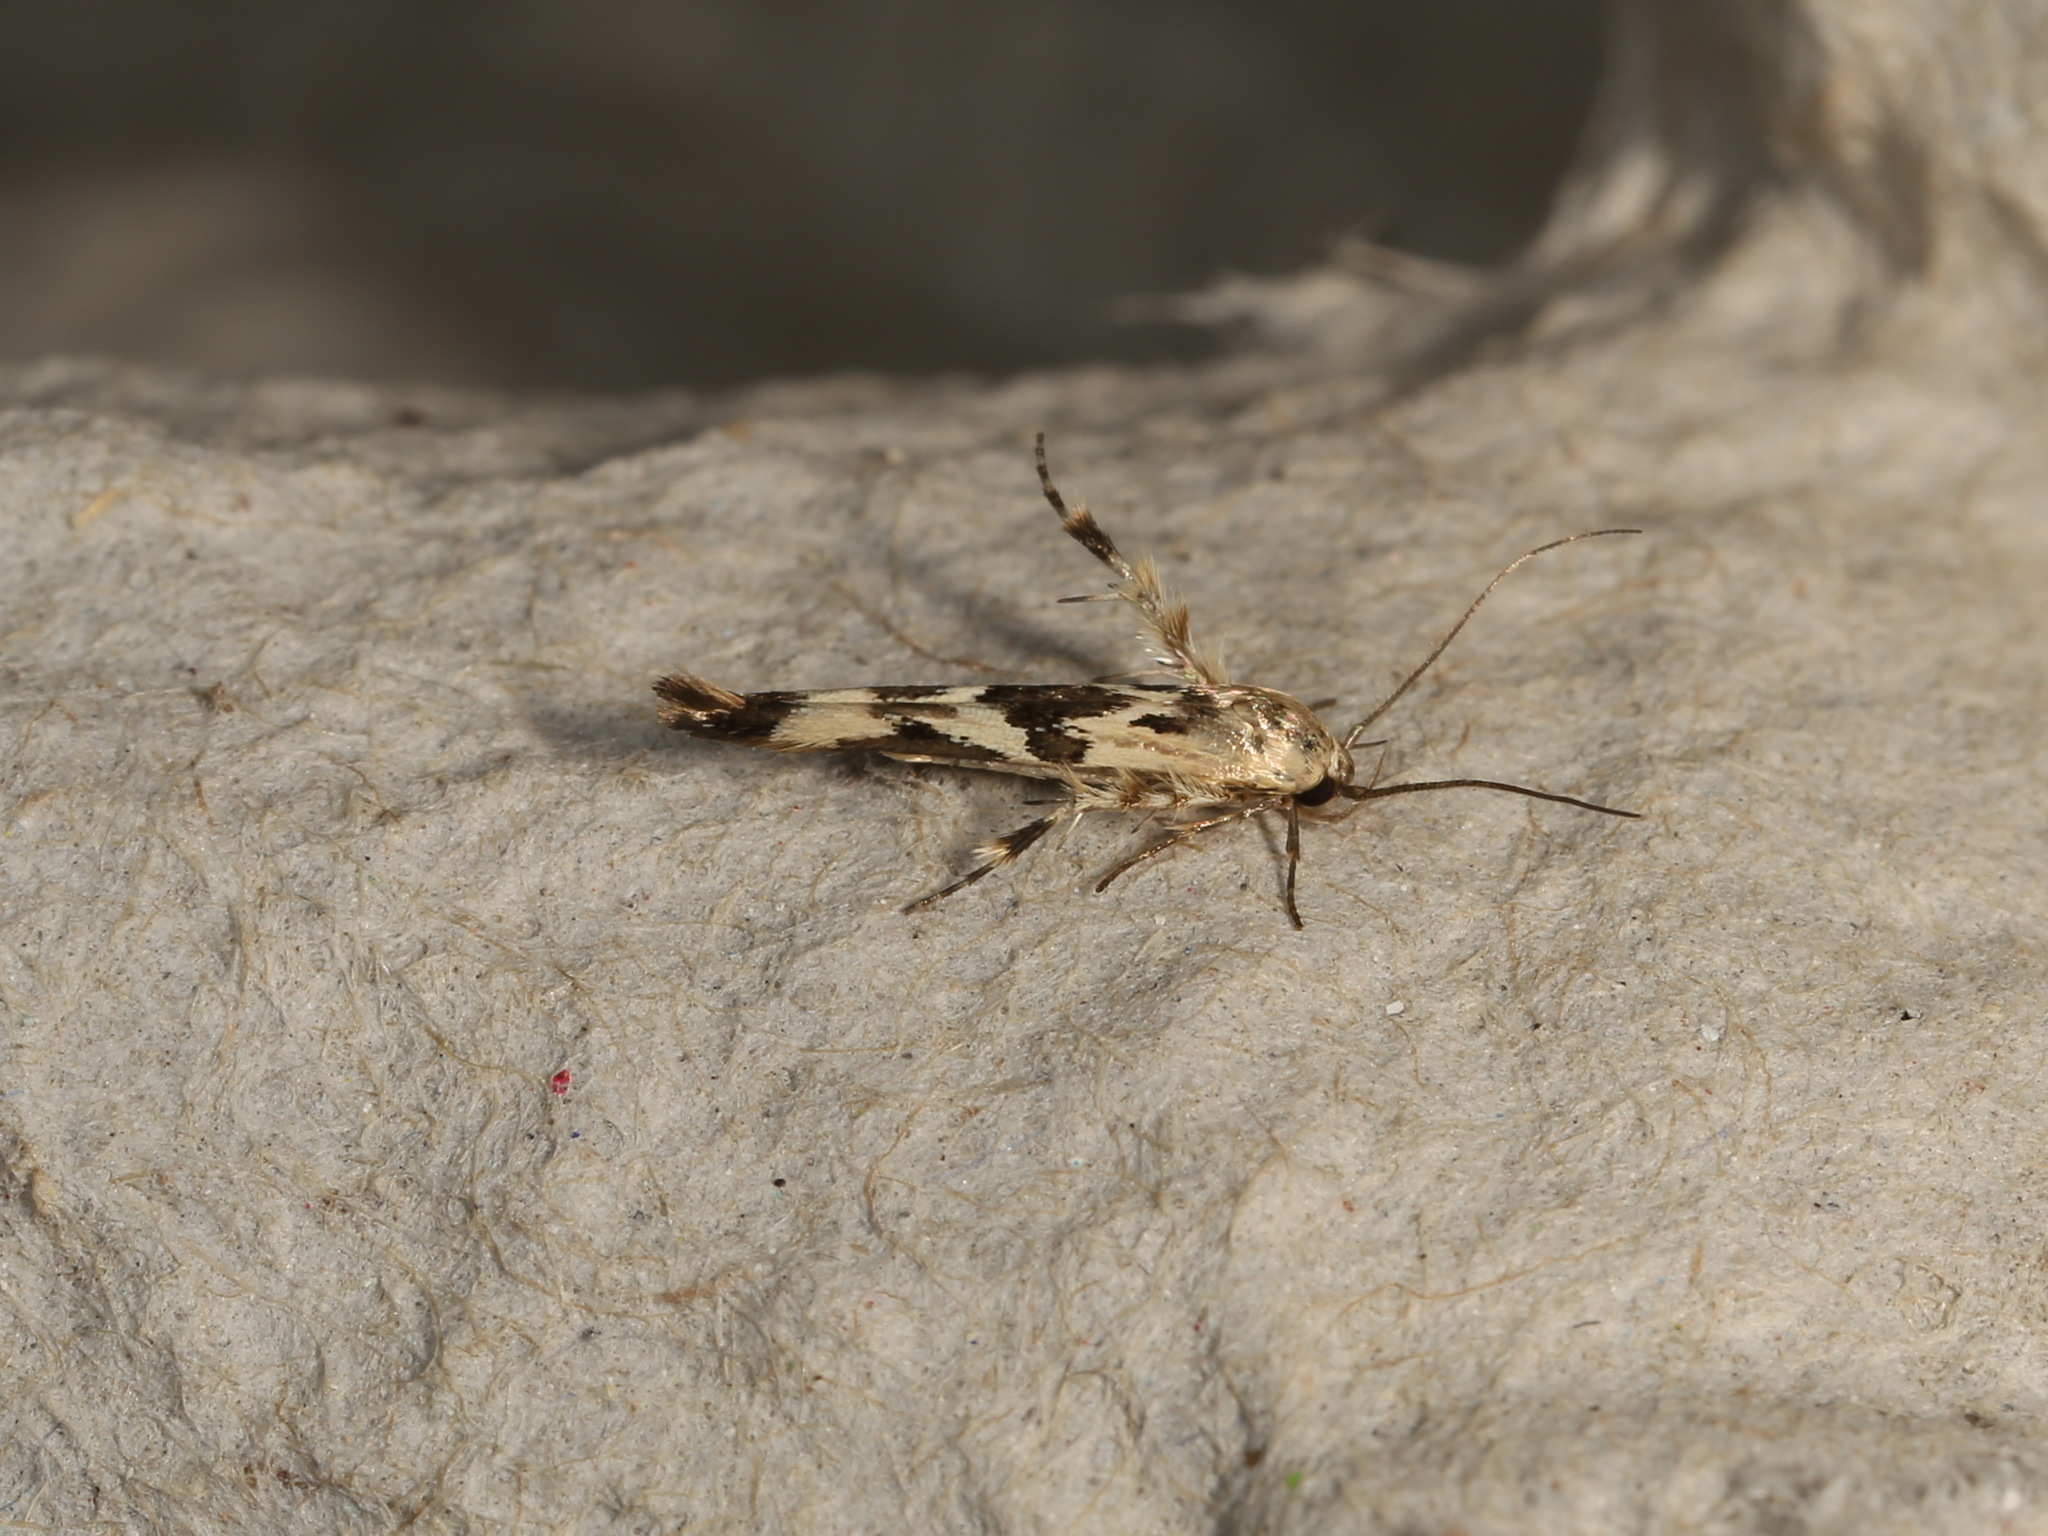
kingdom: Animalia
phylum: Arthropoda
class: Insecta
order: Lepidoptera
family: Stathmopodidae
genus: Stathmopoda
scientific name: Stathmopoda melanochra
